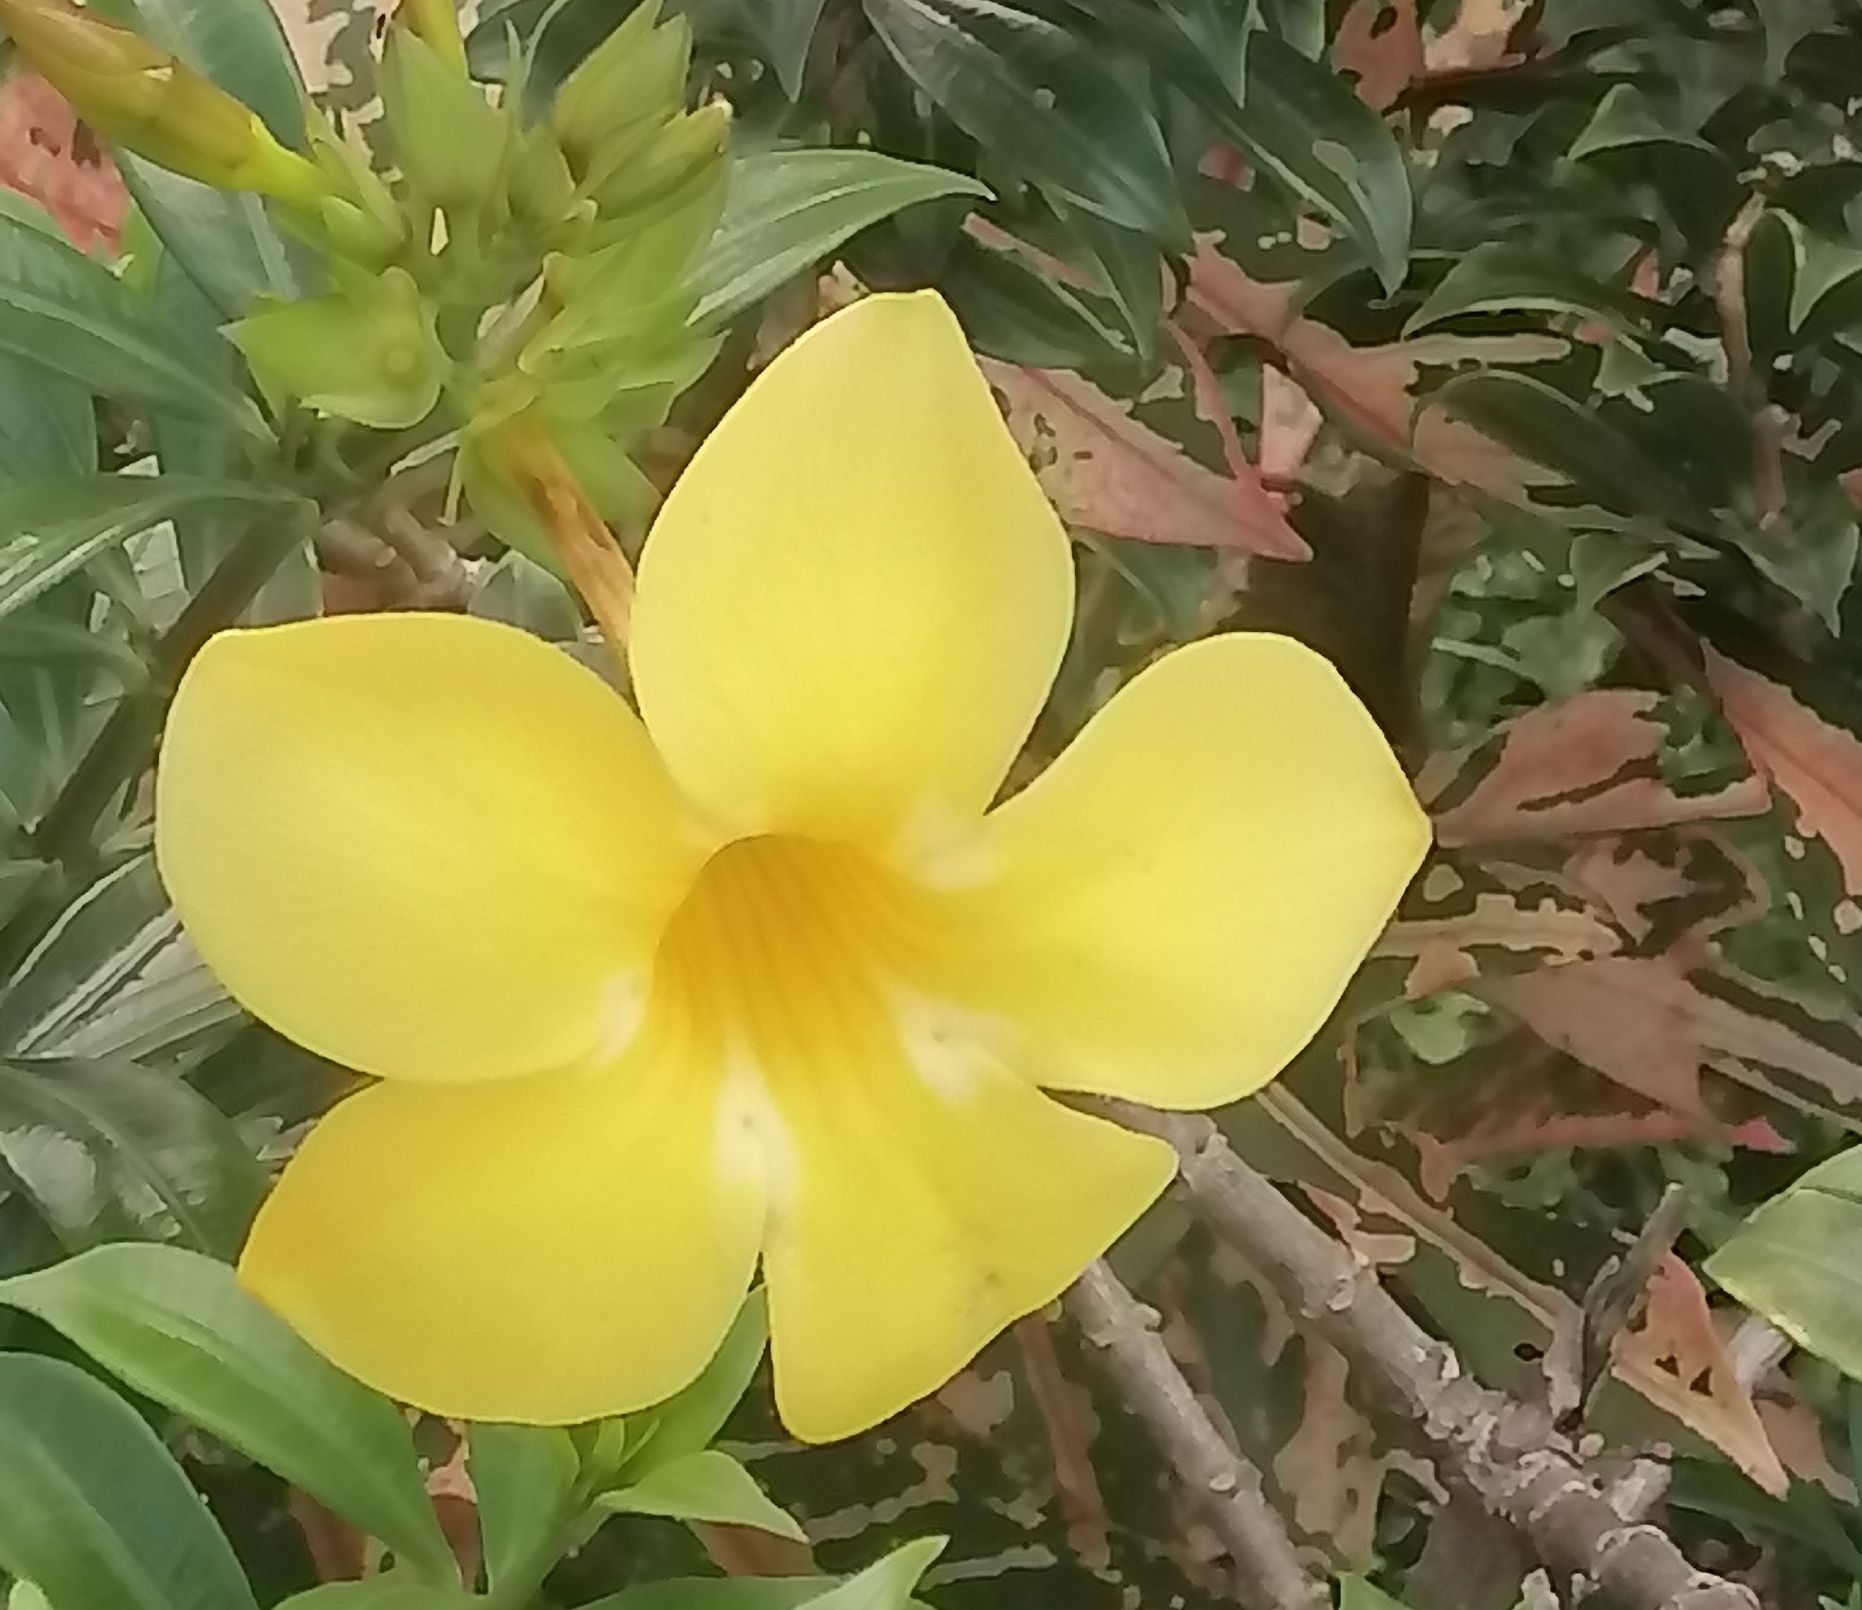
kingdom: Plantae
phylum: Tracheophyta
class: Magnoliopsida
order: Gentianales
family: Apocynaceae
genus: Allamanda
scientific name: Allamanda cathartica
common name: Golden trumpet
